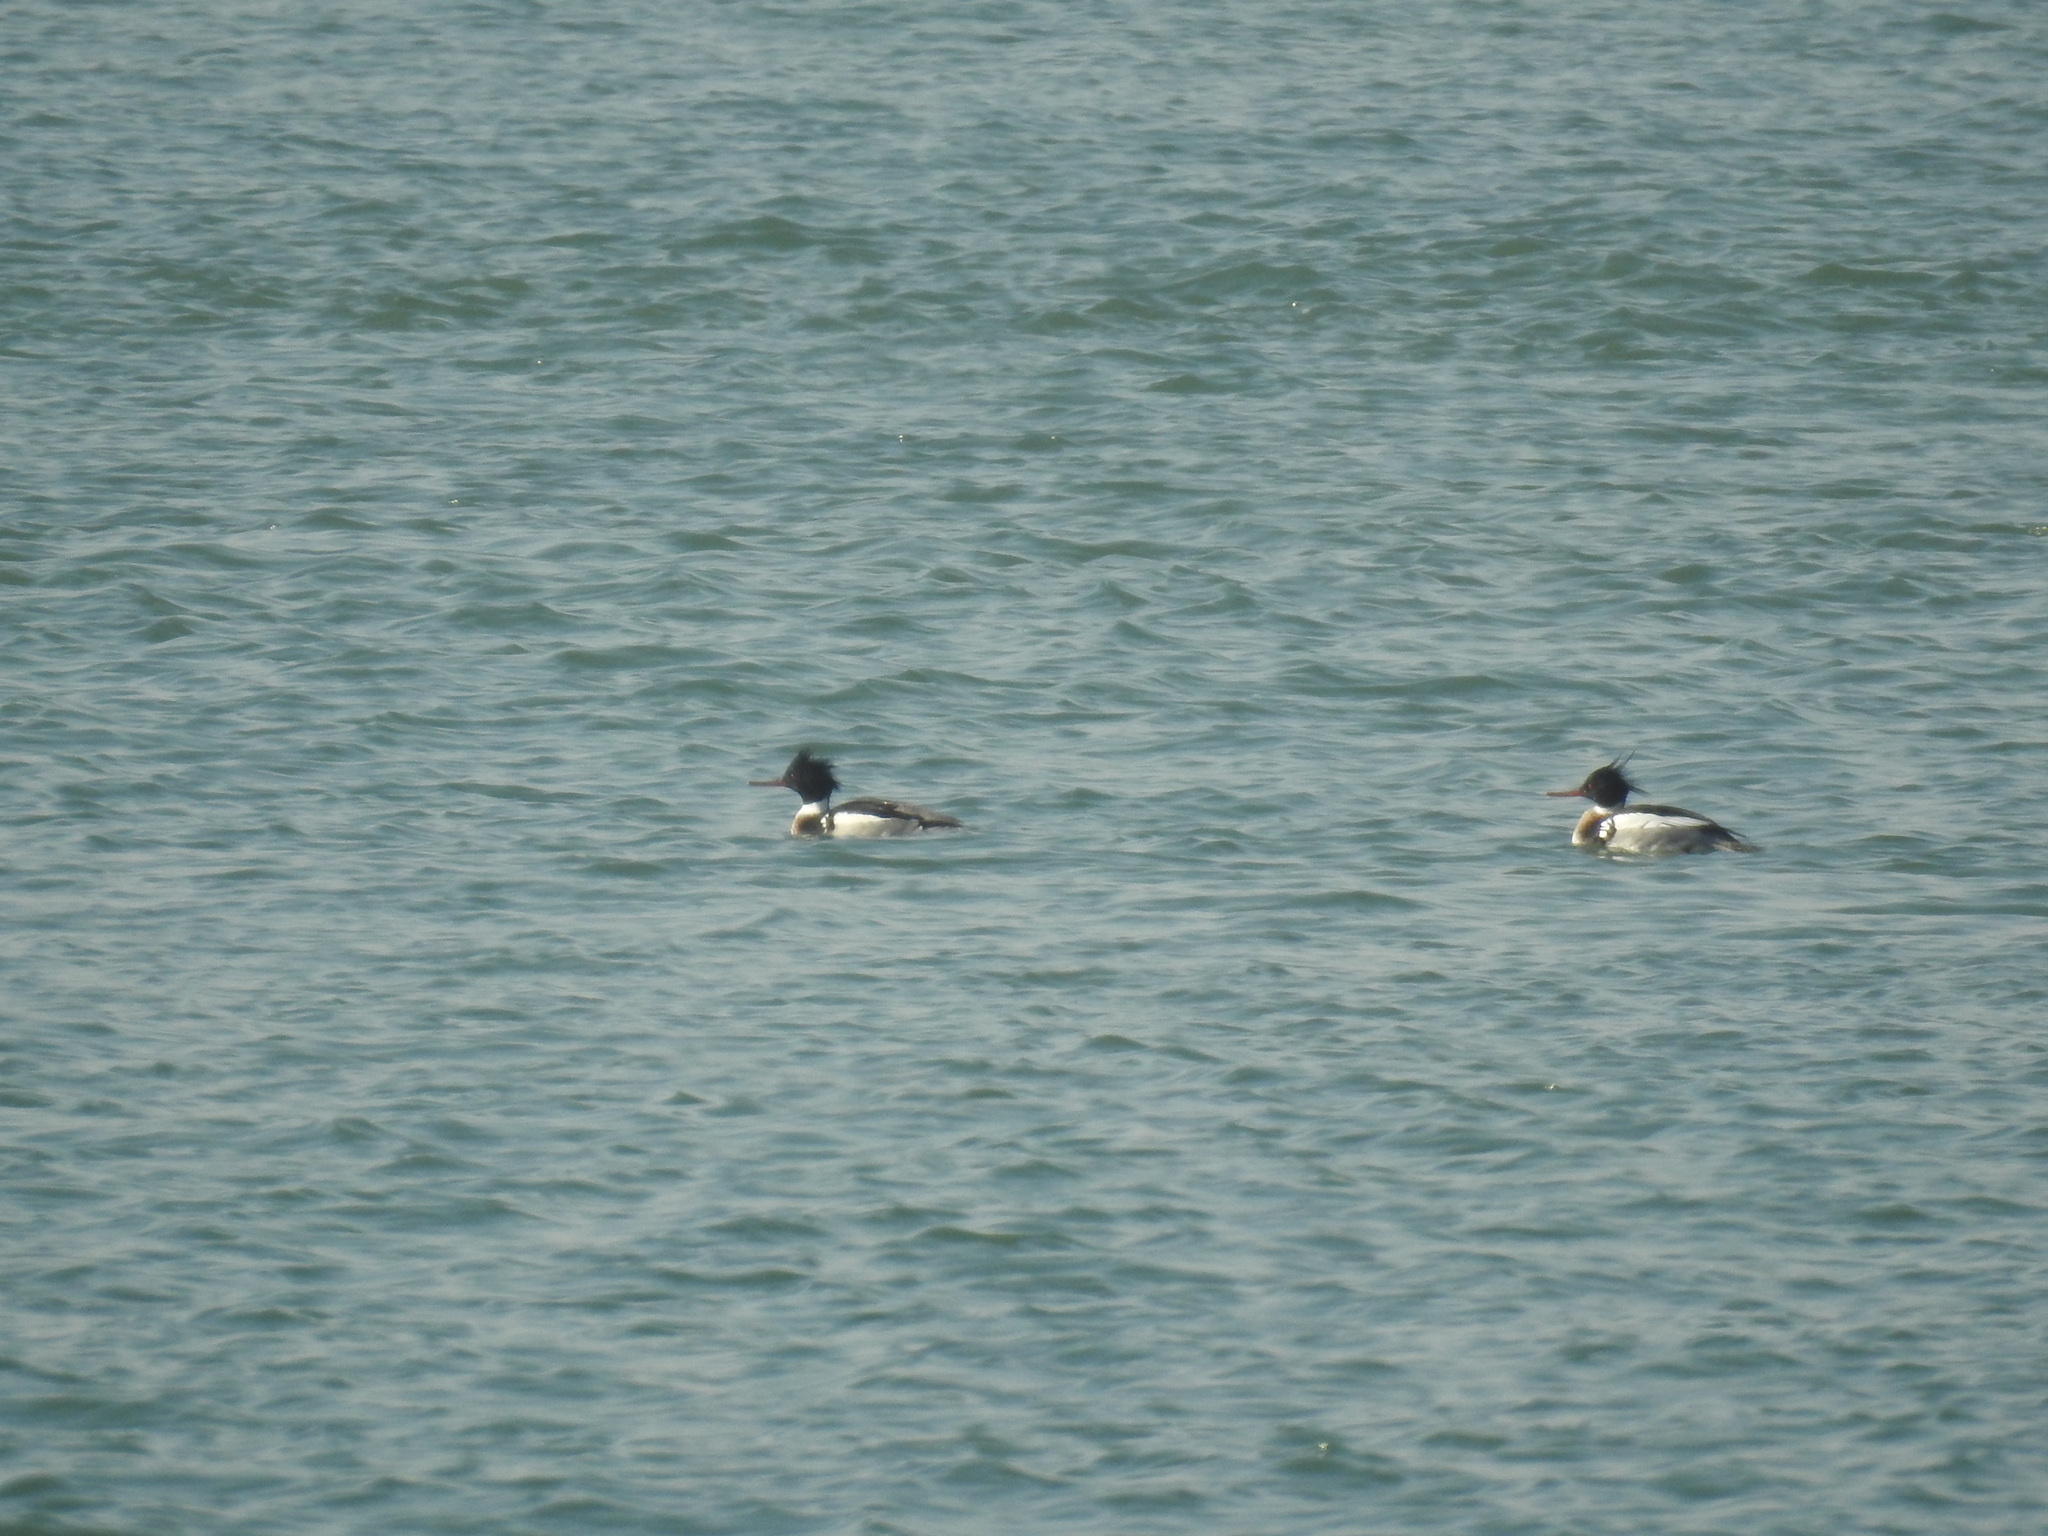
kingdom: Animalia
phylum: Chordata
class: Aves
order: Anseriformes
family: Anatidae
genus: Mergus
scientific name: Mergus serrator
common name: Red-breasted merganser
